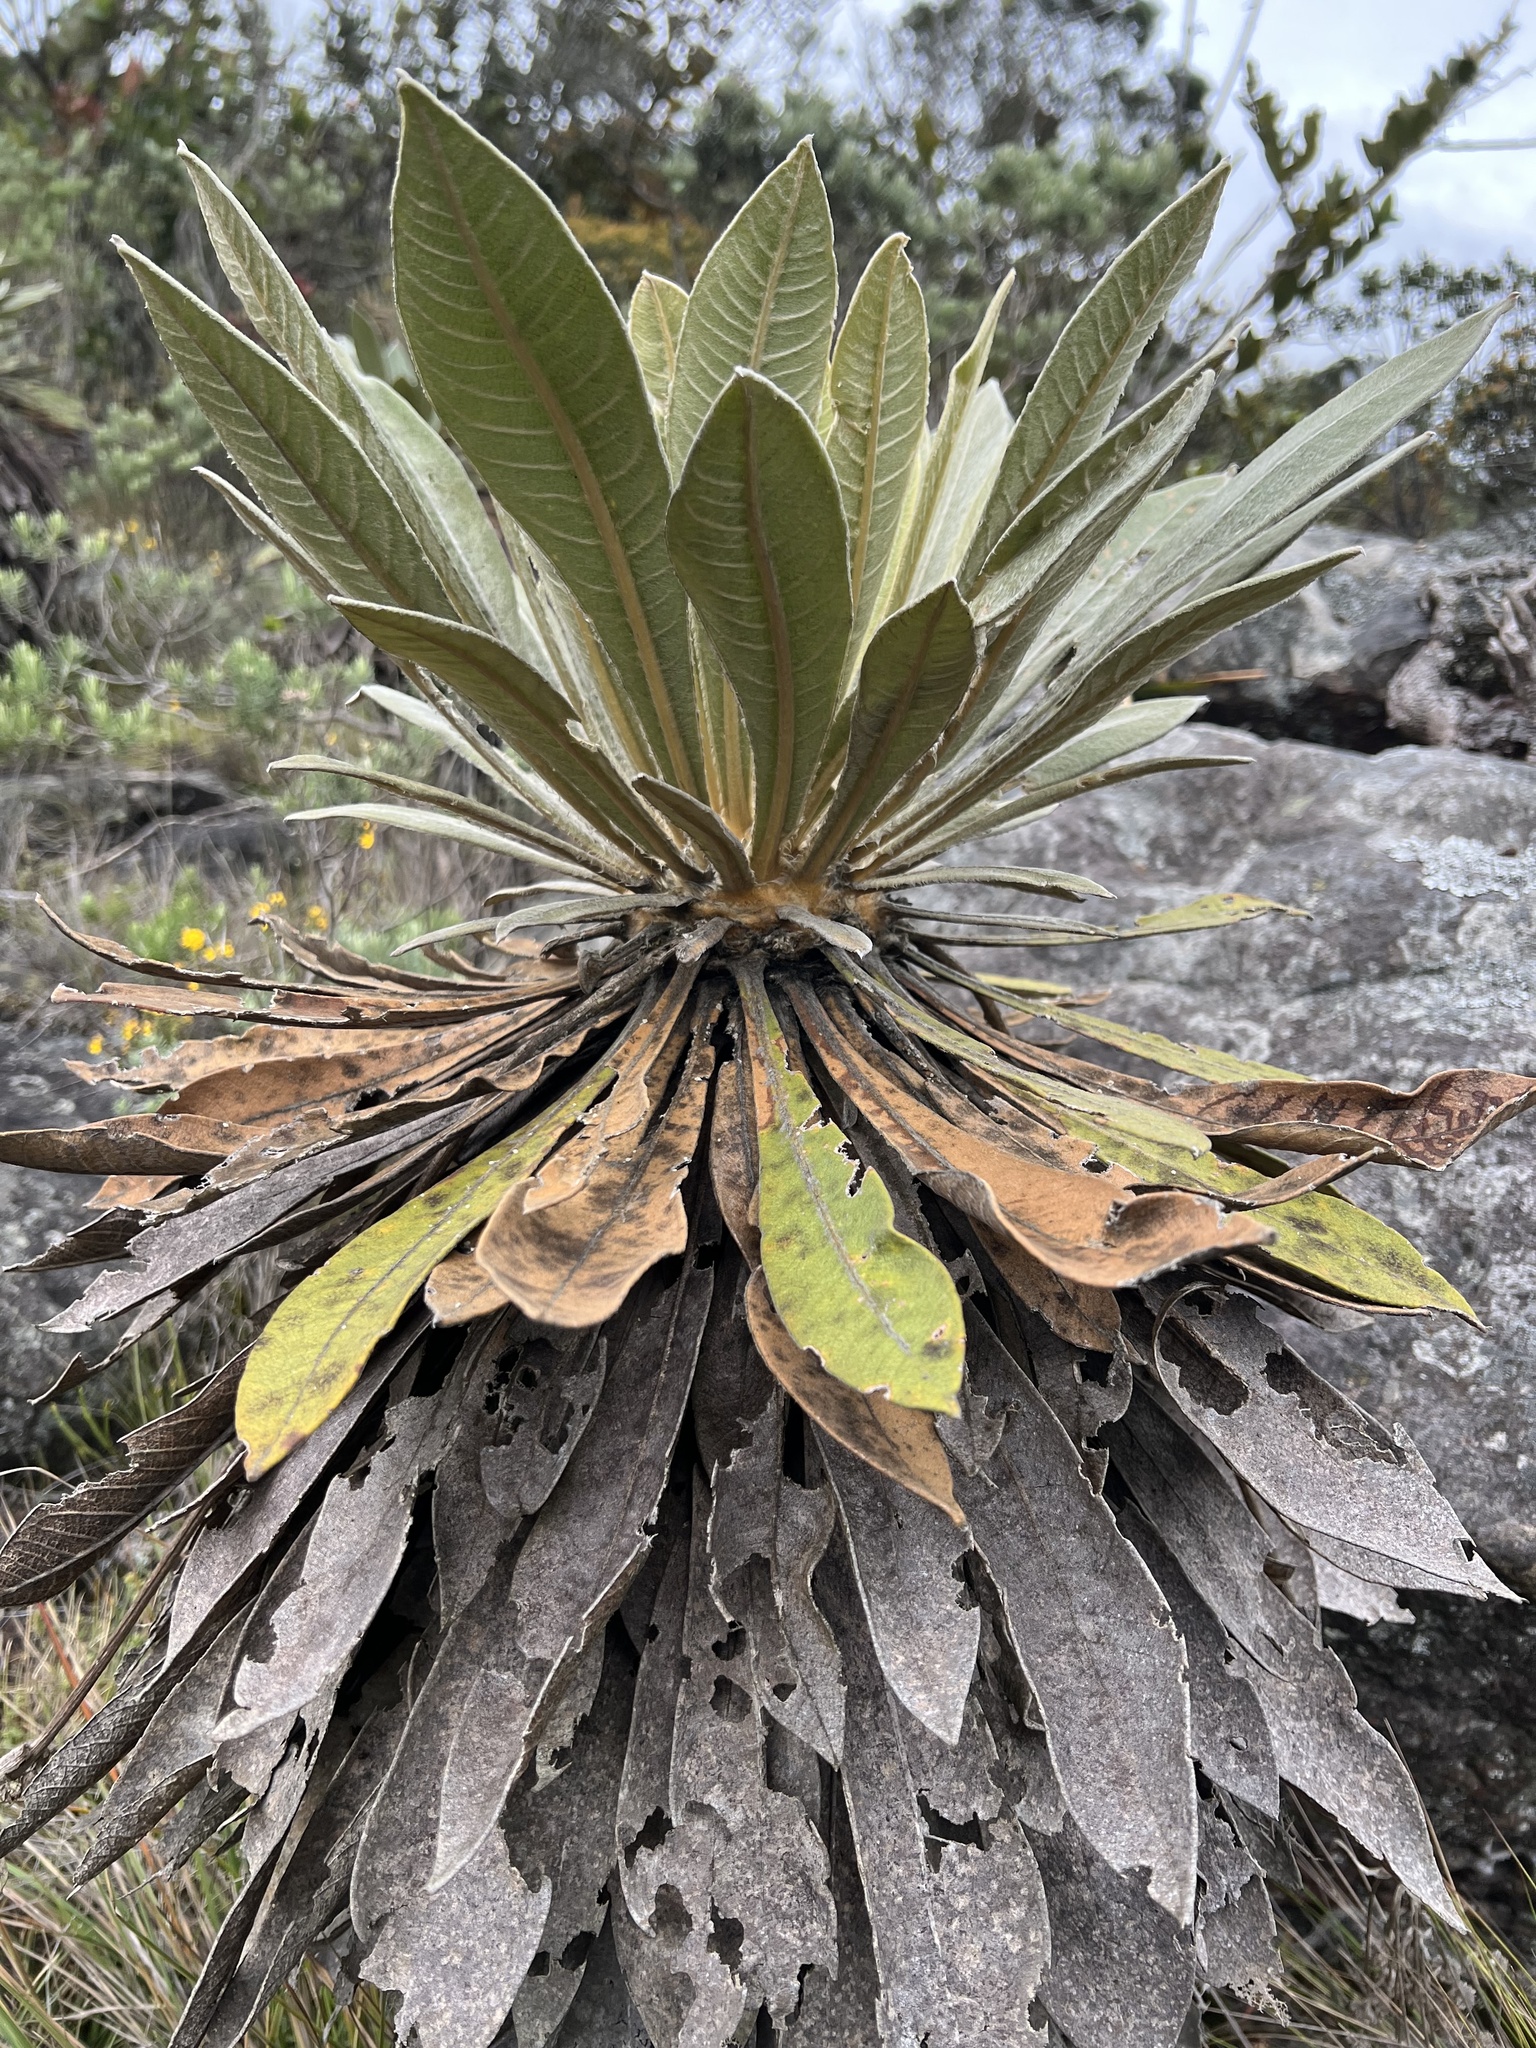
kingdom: Plantae
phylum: Tracheophyta
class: Magnoliopsida
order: Asterales
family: Asteraceae
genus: Espeletia
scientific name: Espeletia corymbosa
